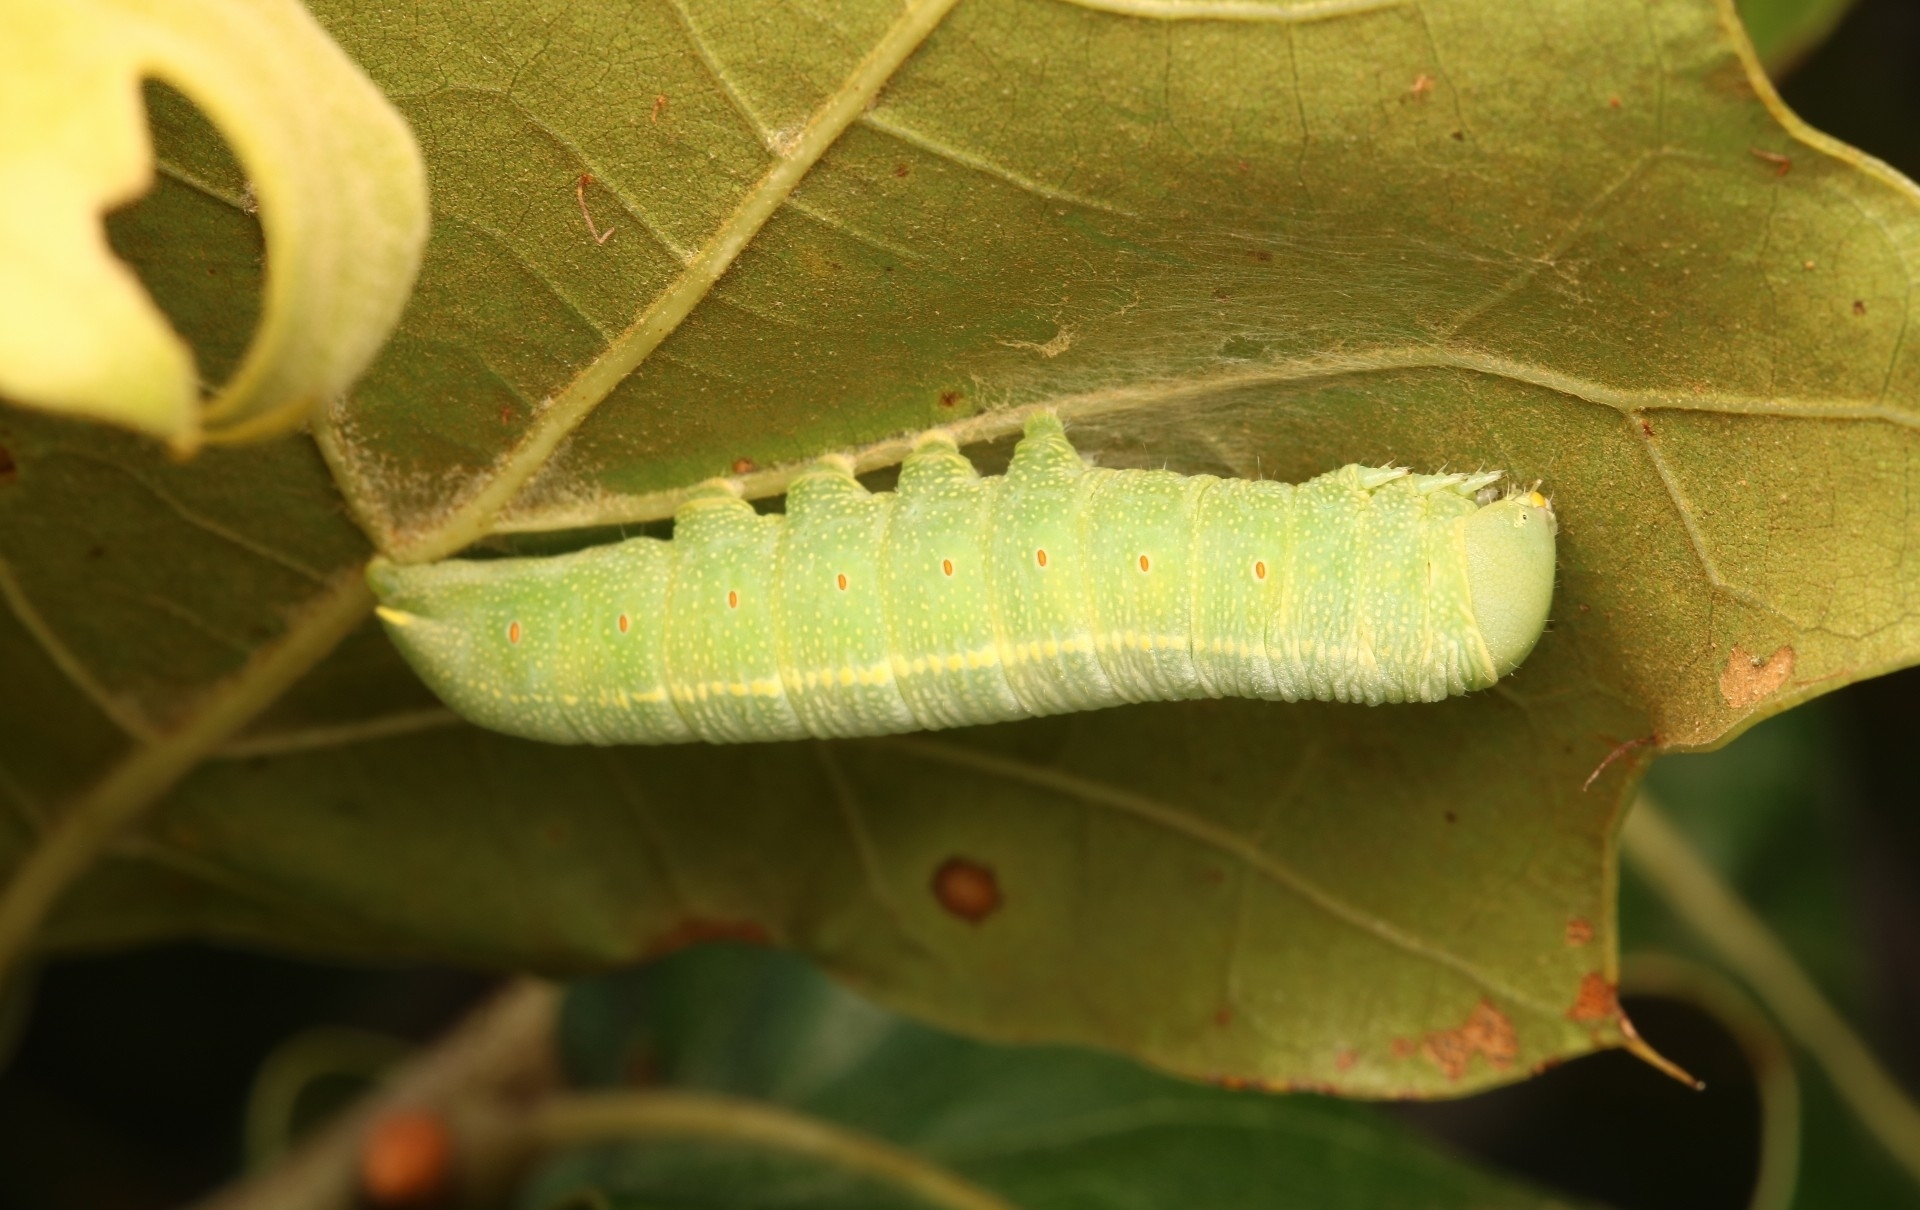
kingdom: Animalia
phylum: Arthropoda
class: Insecta
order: Lepidoptera
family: Notodontidae
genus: Nadata
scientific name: Nadata gibbosa
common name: White-dotted prominent
